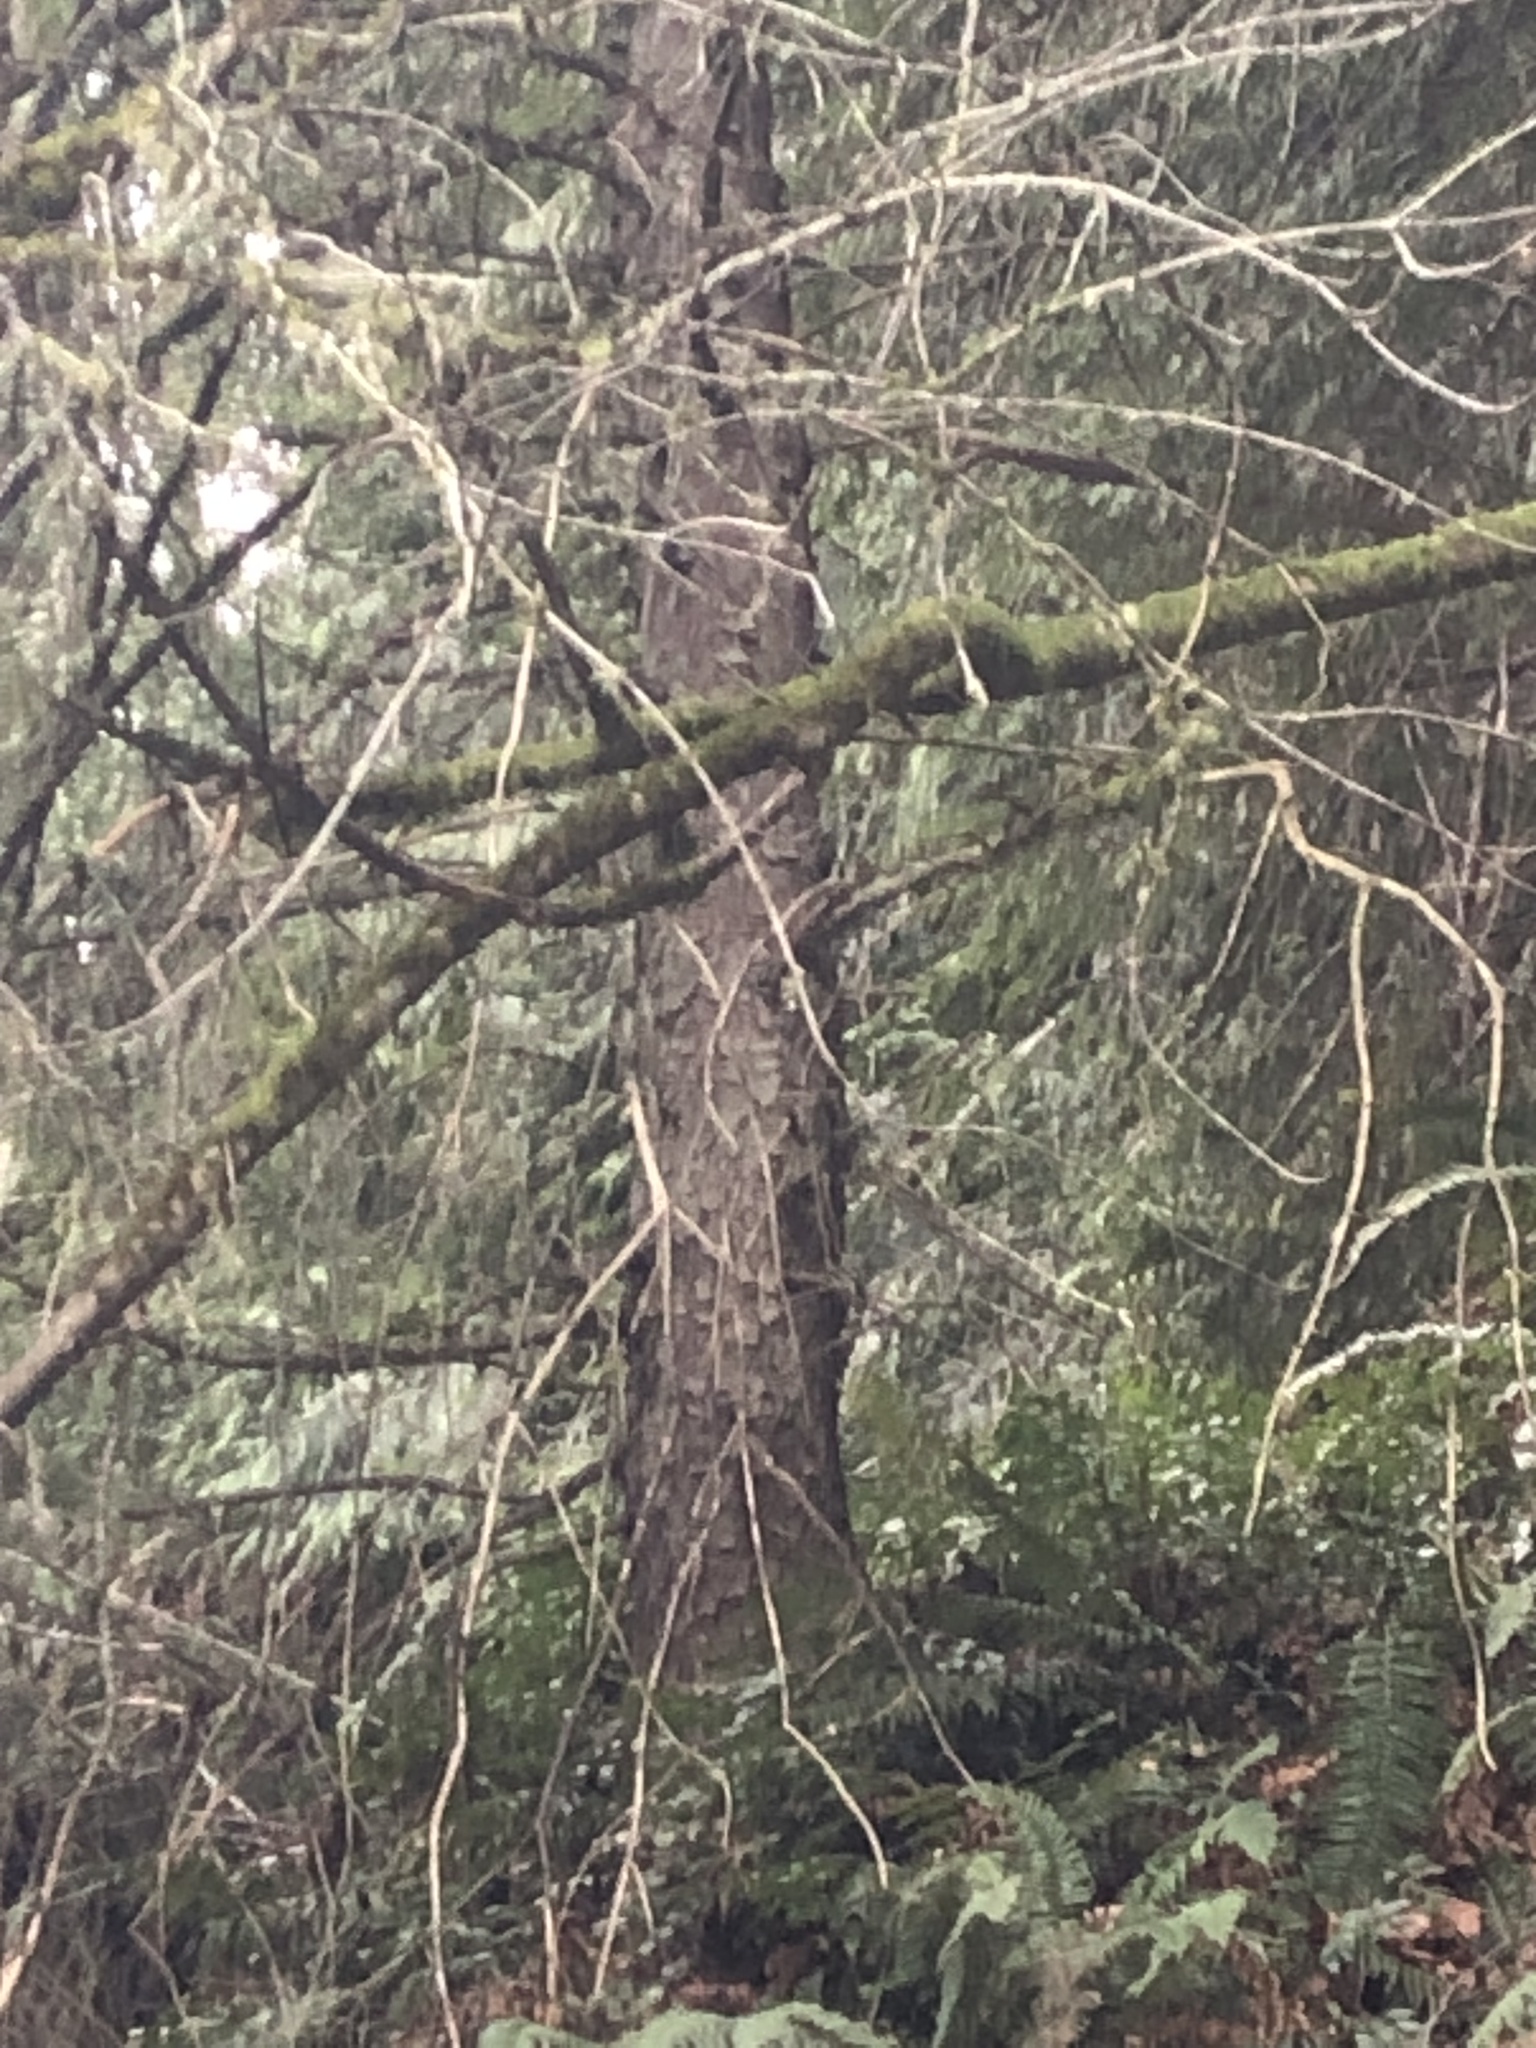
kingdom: Plantae
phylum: Tracheophyta
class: Pinopsida
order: Pinales
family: Pinaceae
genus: Picea
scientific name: Picea sitchensis
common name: Sitka spruce
